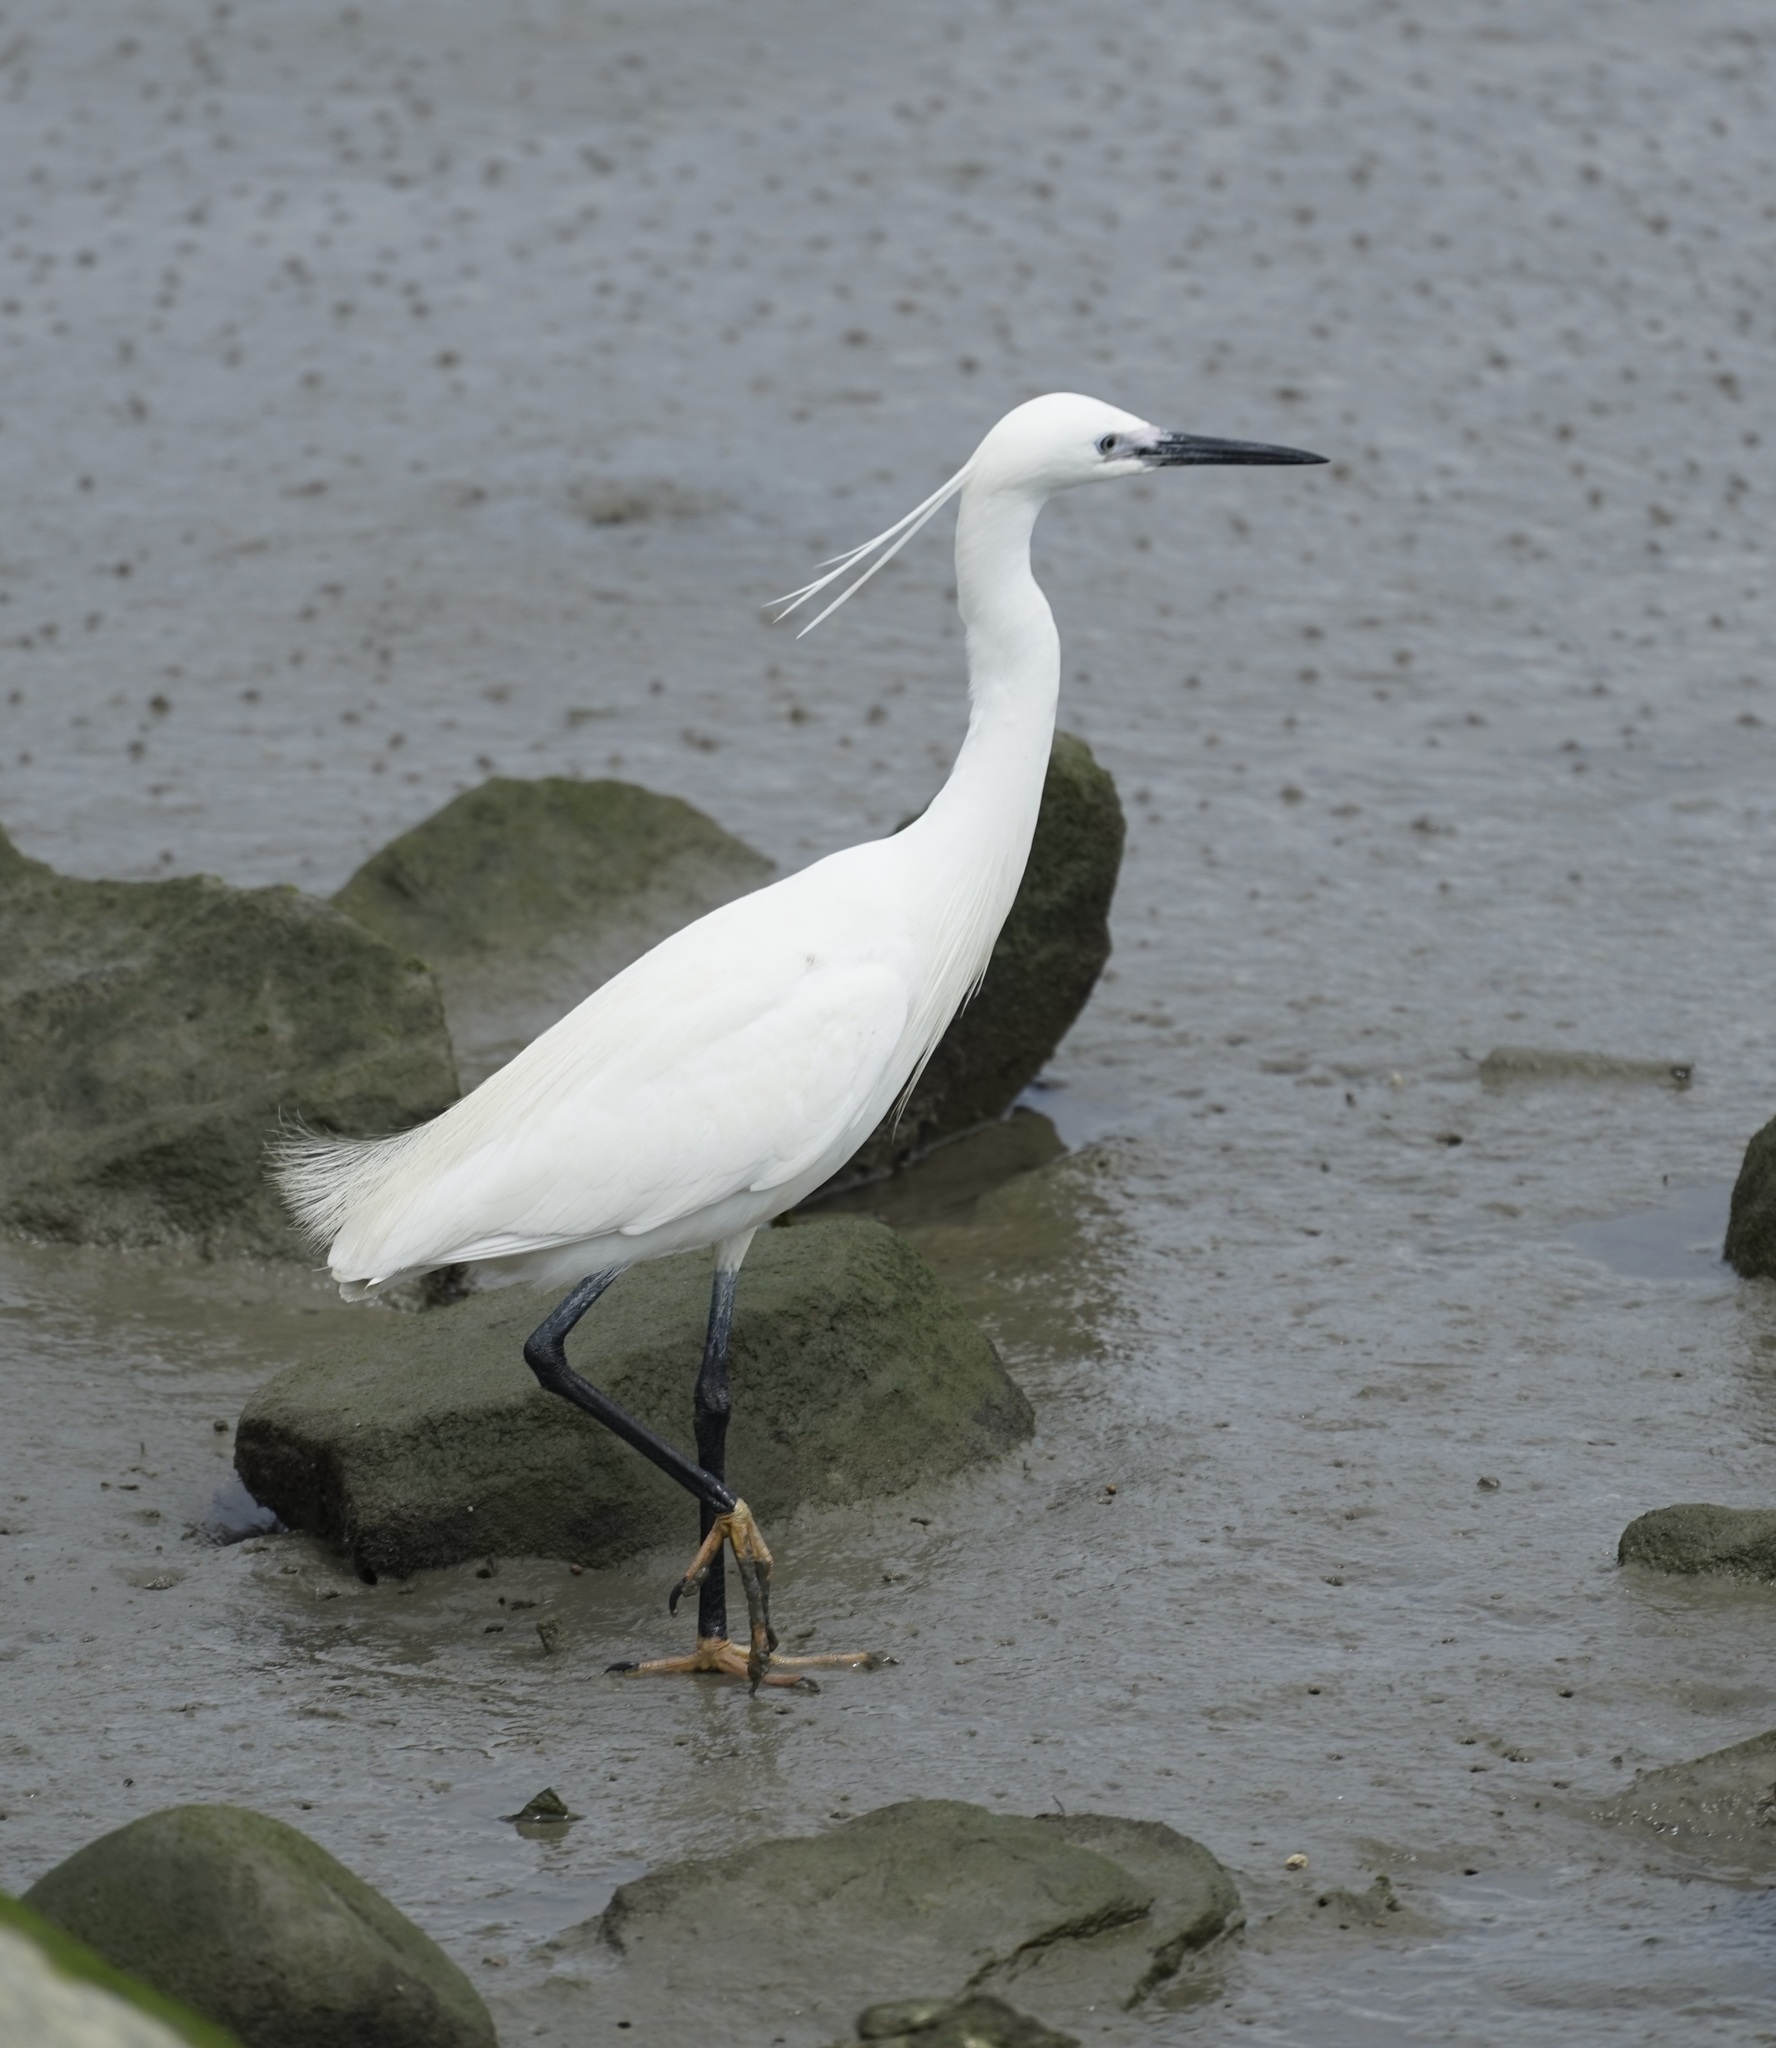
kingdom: Animalia
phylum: Chordata
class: Aves
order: Pelecaniformes
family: Ardeidae
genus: Egretta
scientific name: Egretta garzetta
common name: Little egret
